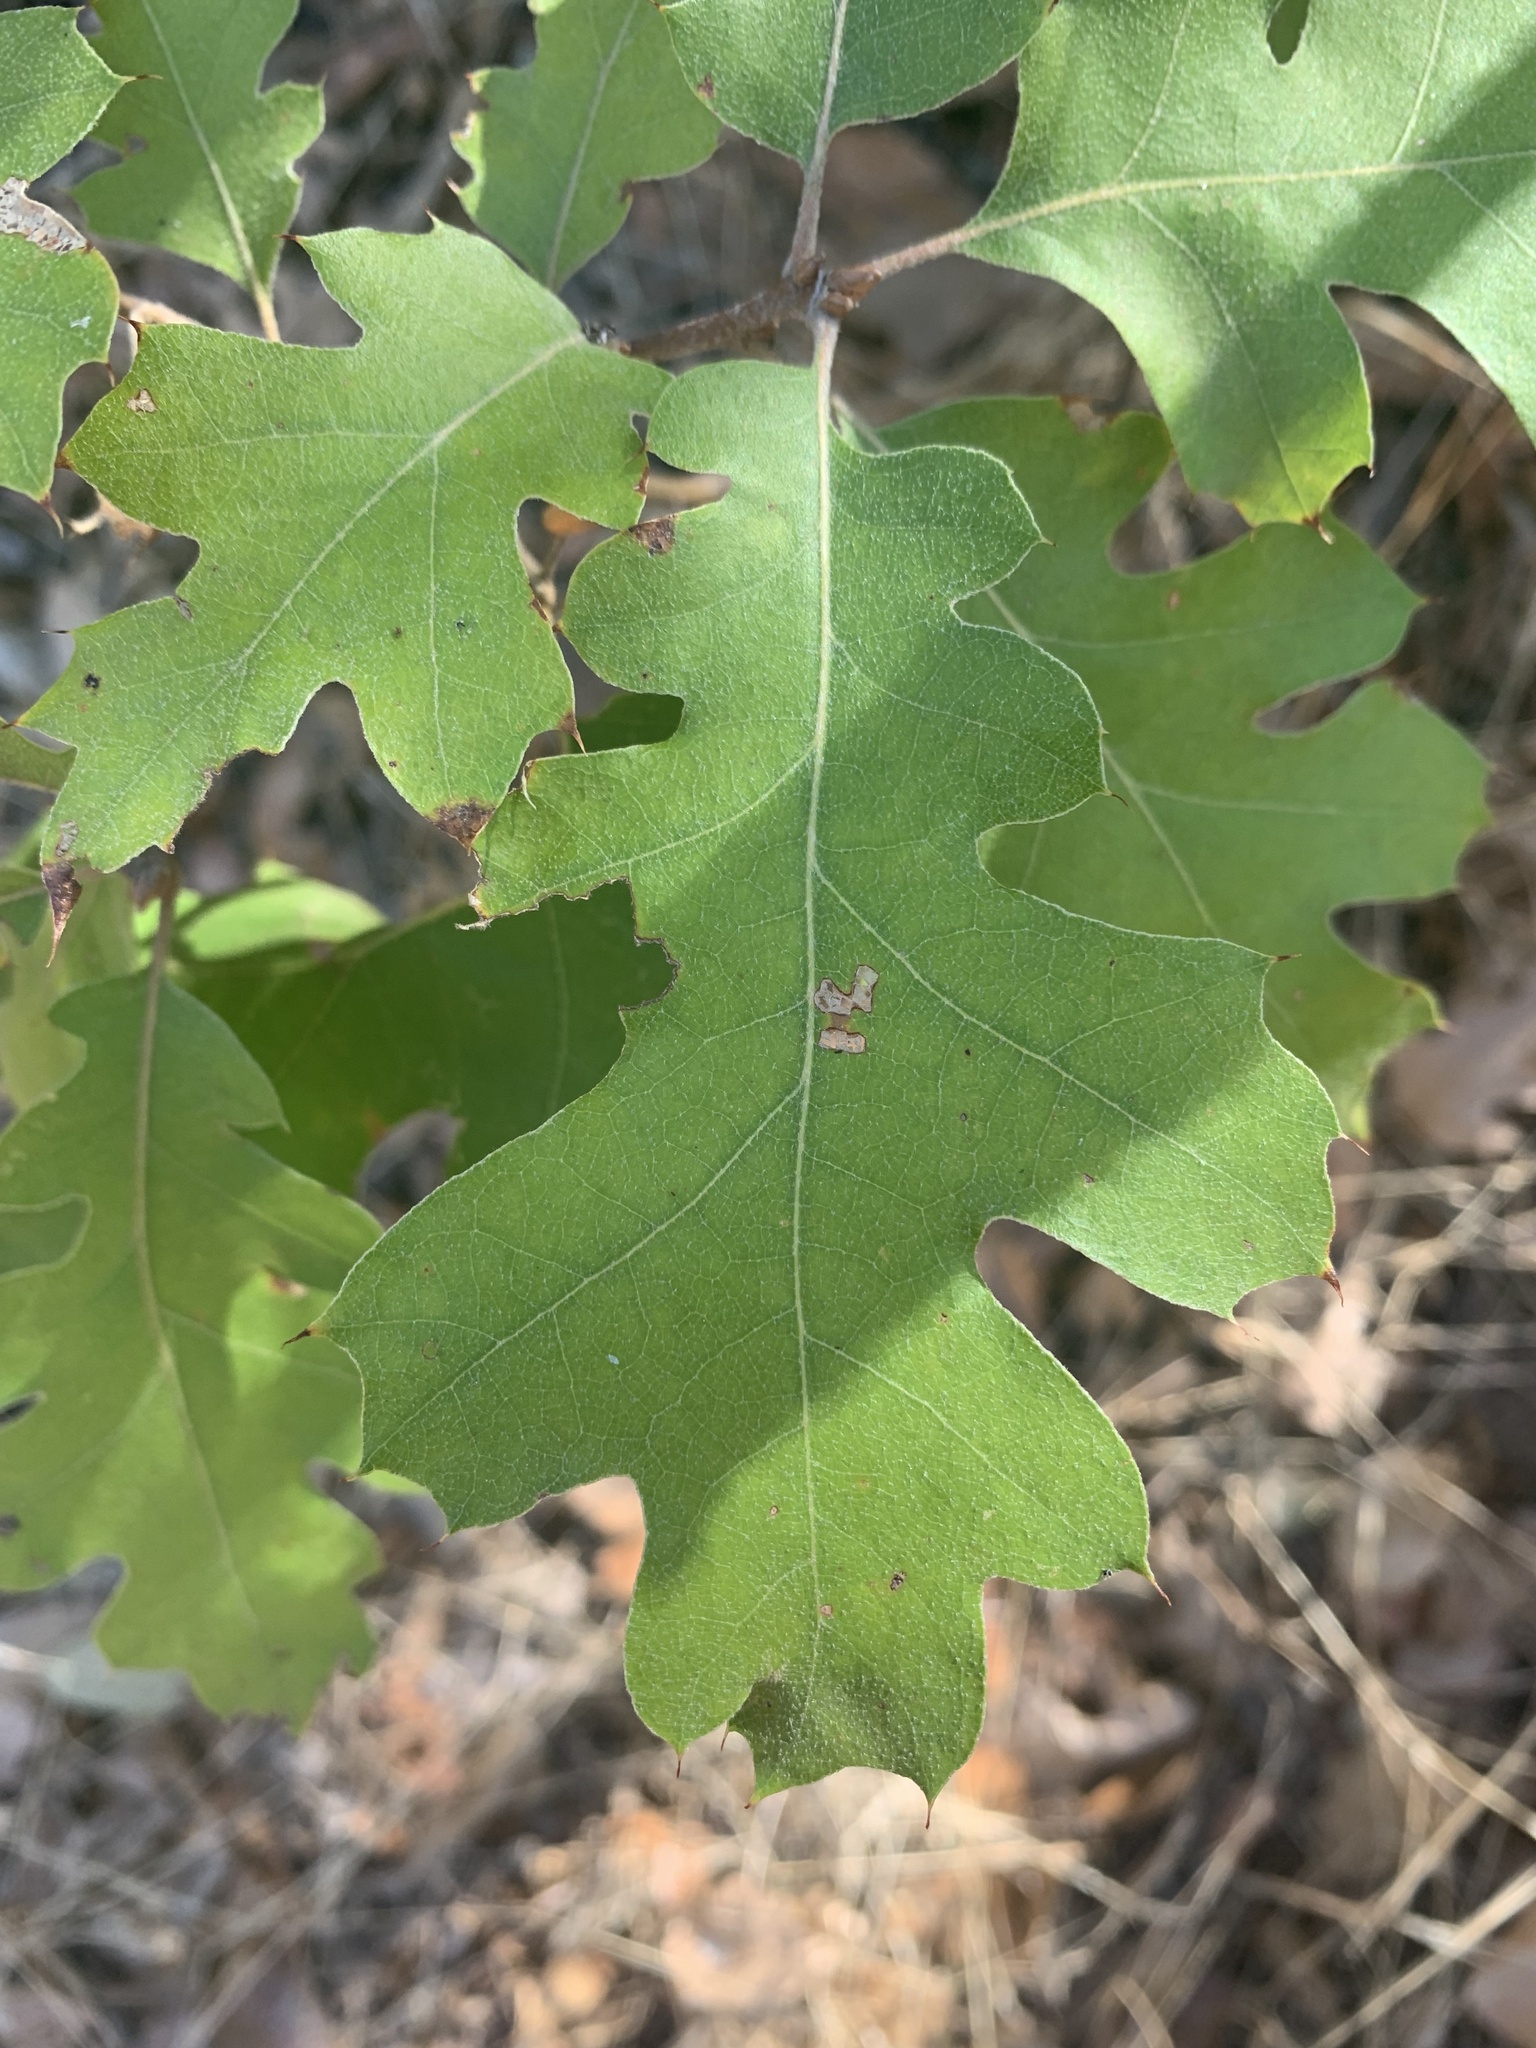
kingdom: Plantae
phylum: Tracheophyta
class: Magnoliopsida
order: Fagales
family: Fagaceae
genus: Quercus
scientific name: Quercus kelloggii
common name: California black oak
